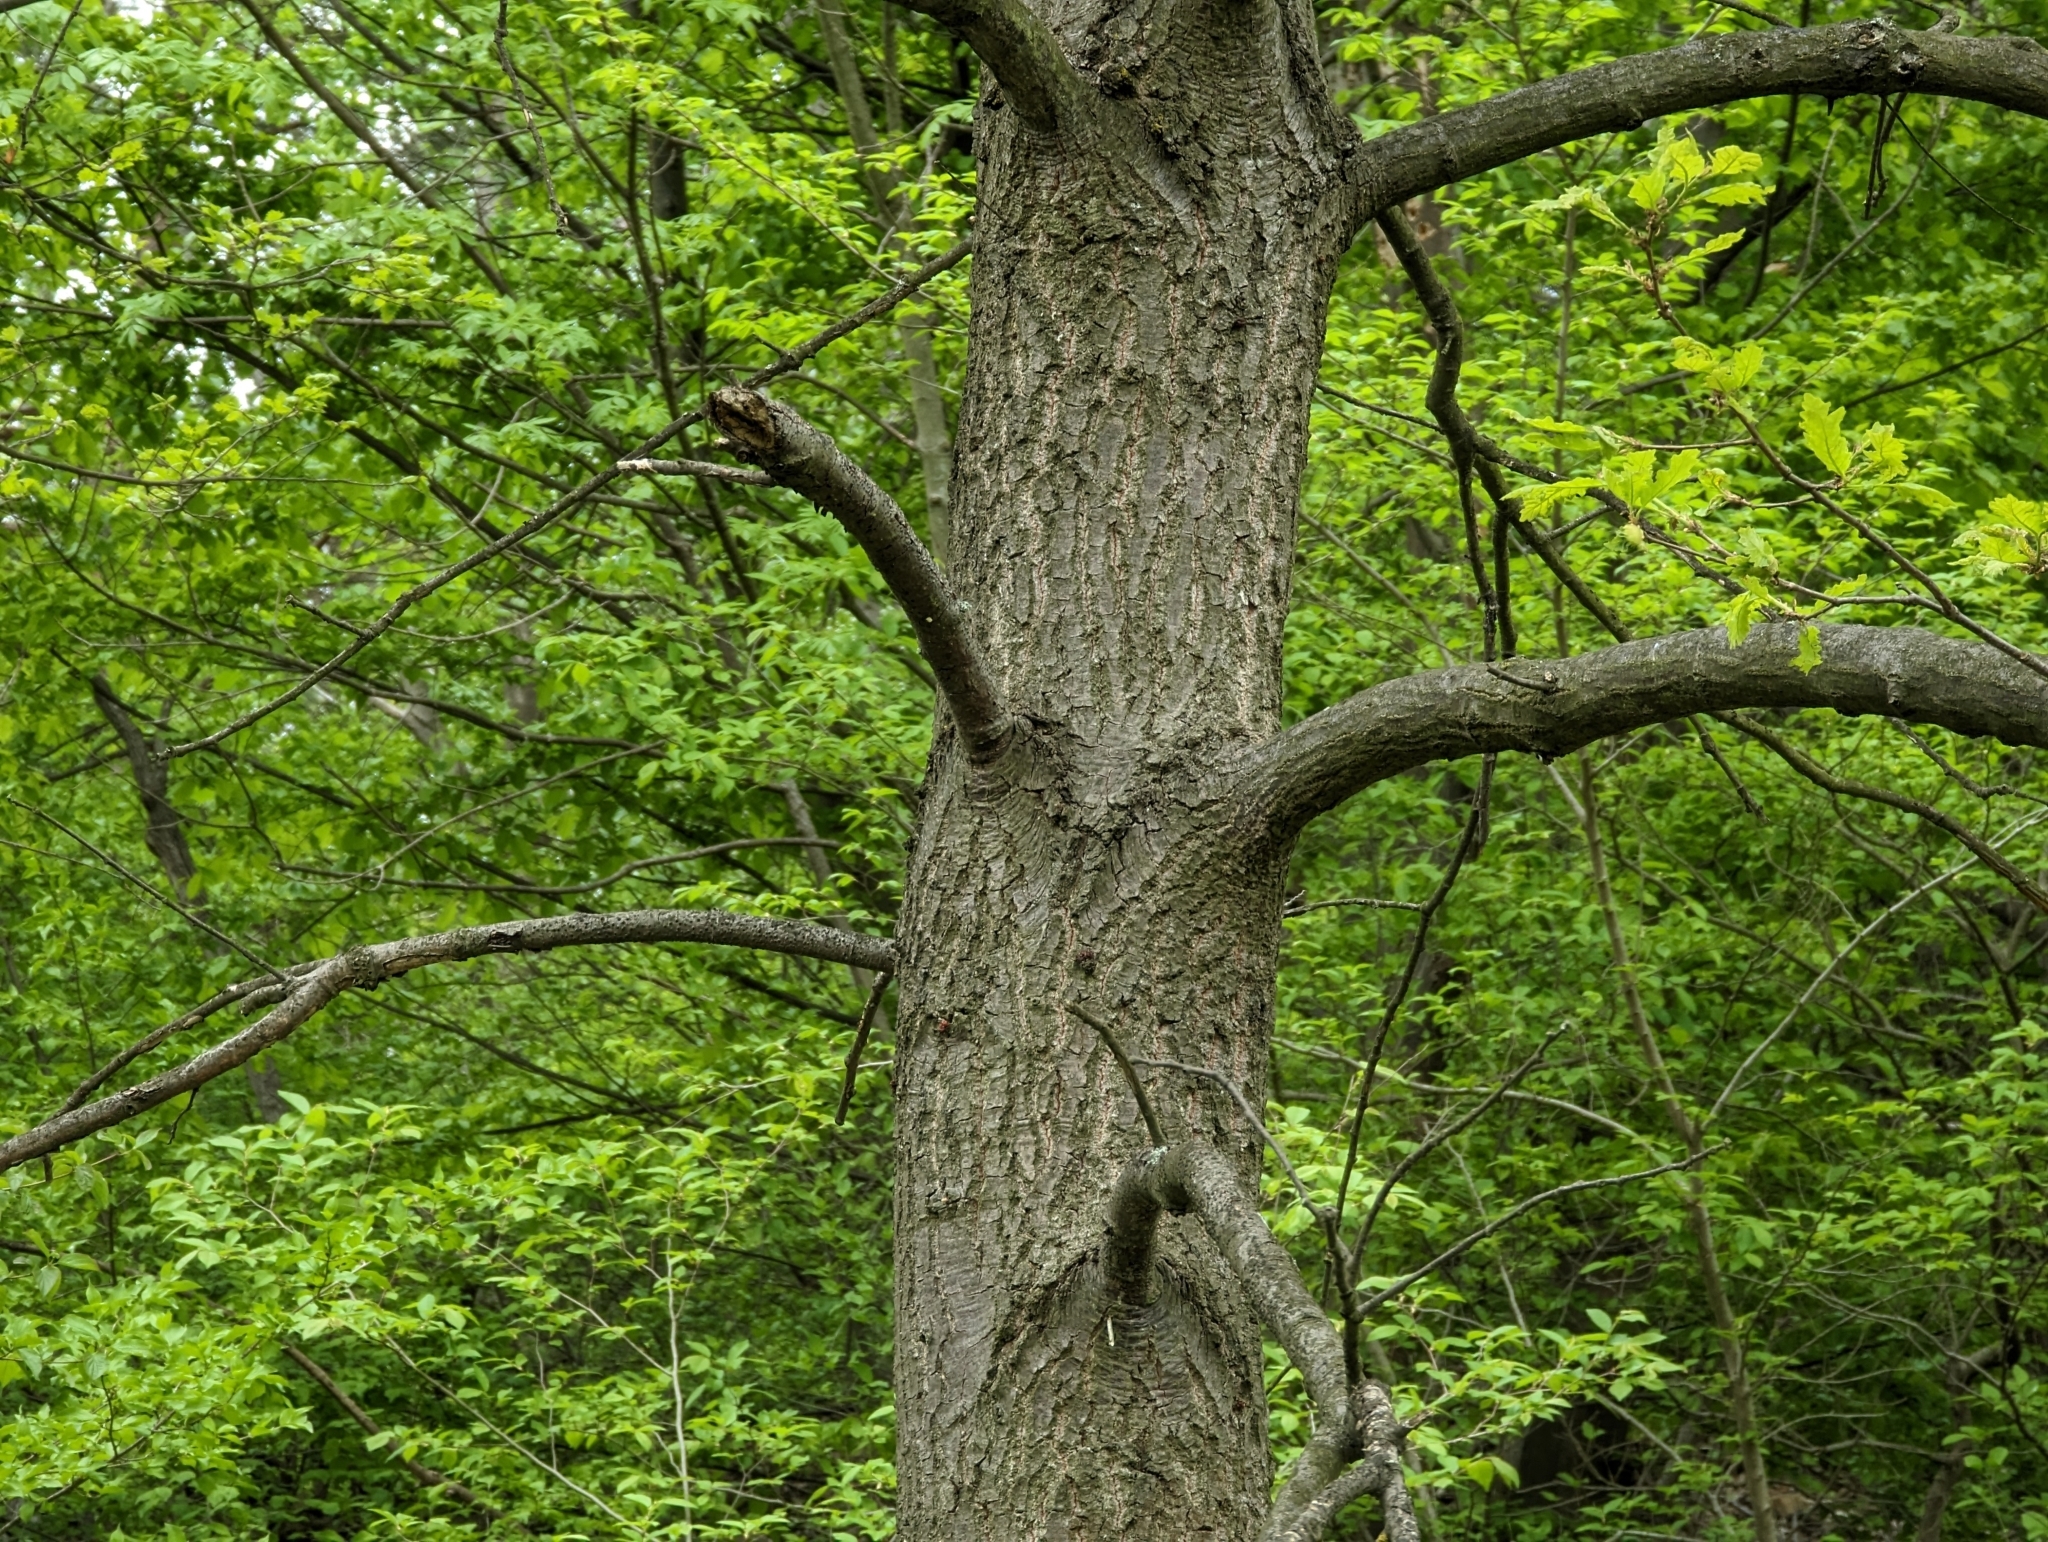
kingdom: Plantae
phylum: Tracheophyta
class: Magnoliopsida
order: Fagales
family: Fagaceae
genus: Quercus
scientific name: Quercus cerris
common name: Turkey oak
